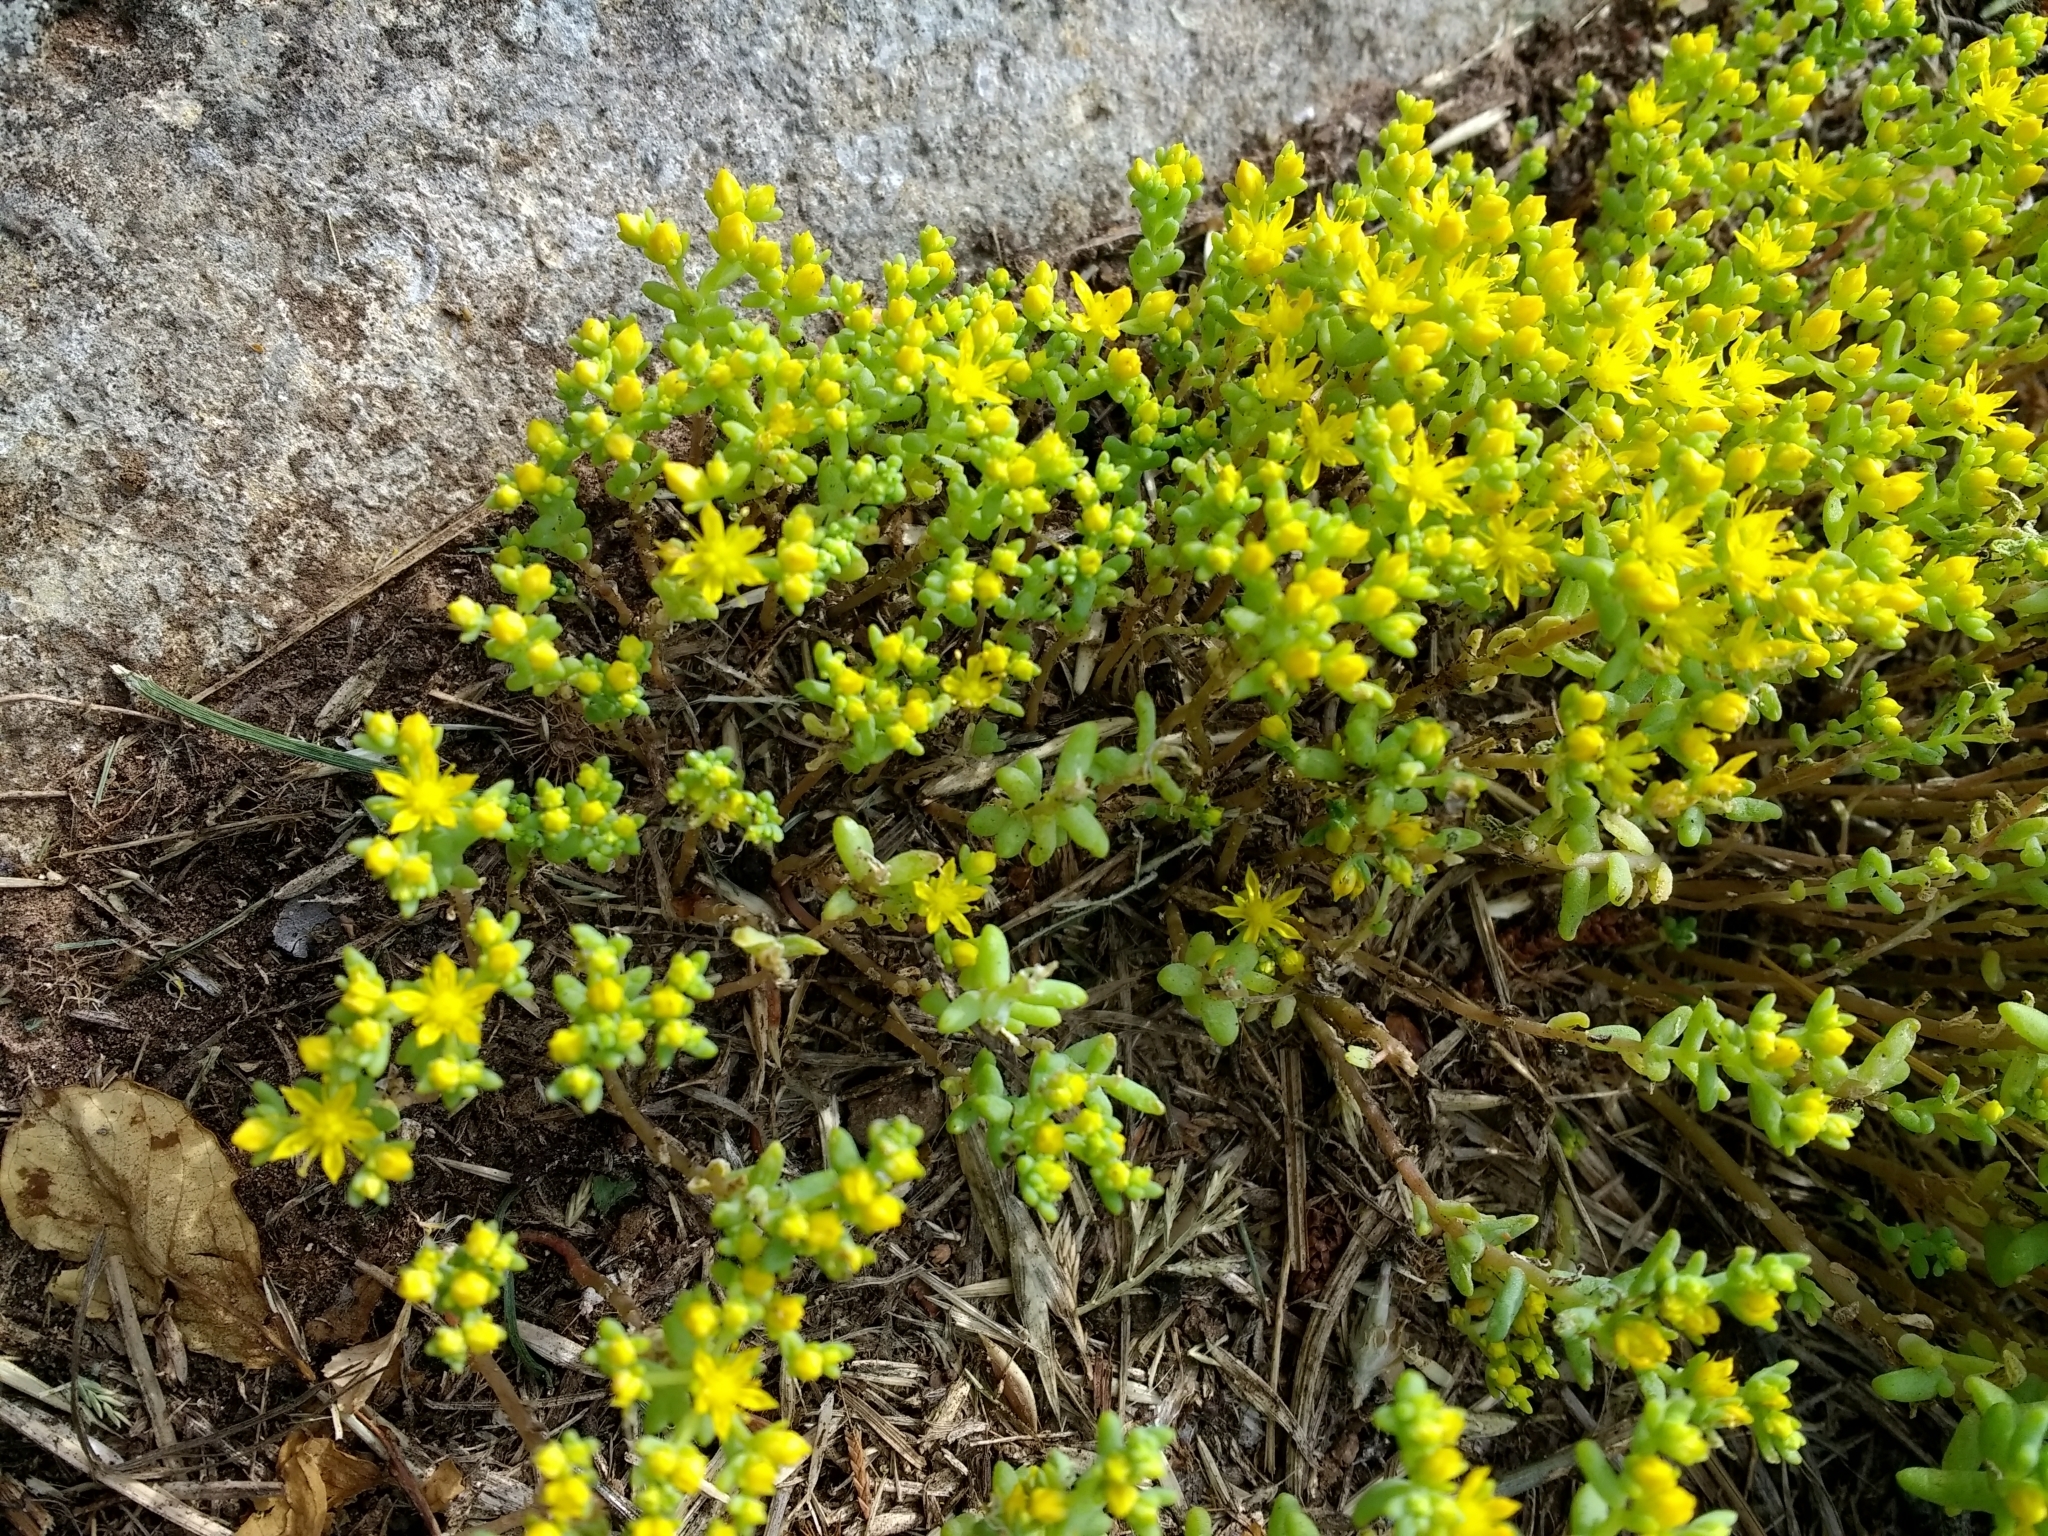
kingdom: Plantae
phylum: Tracheophyta
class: Magnoliopsida
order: Saxifragales
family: Crassulaceae
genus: Sedum
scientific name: Sedum nuttallii
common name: Yellow stonecrop
